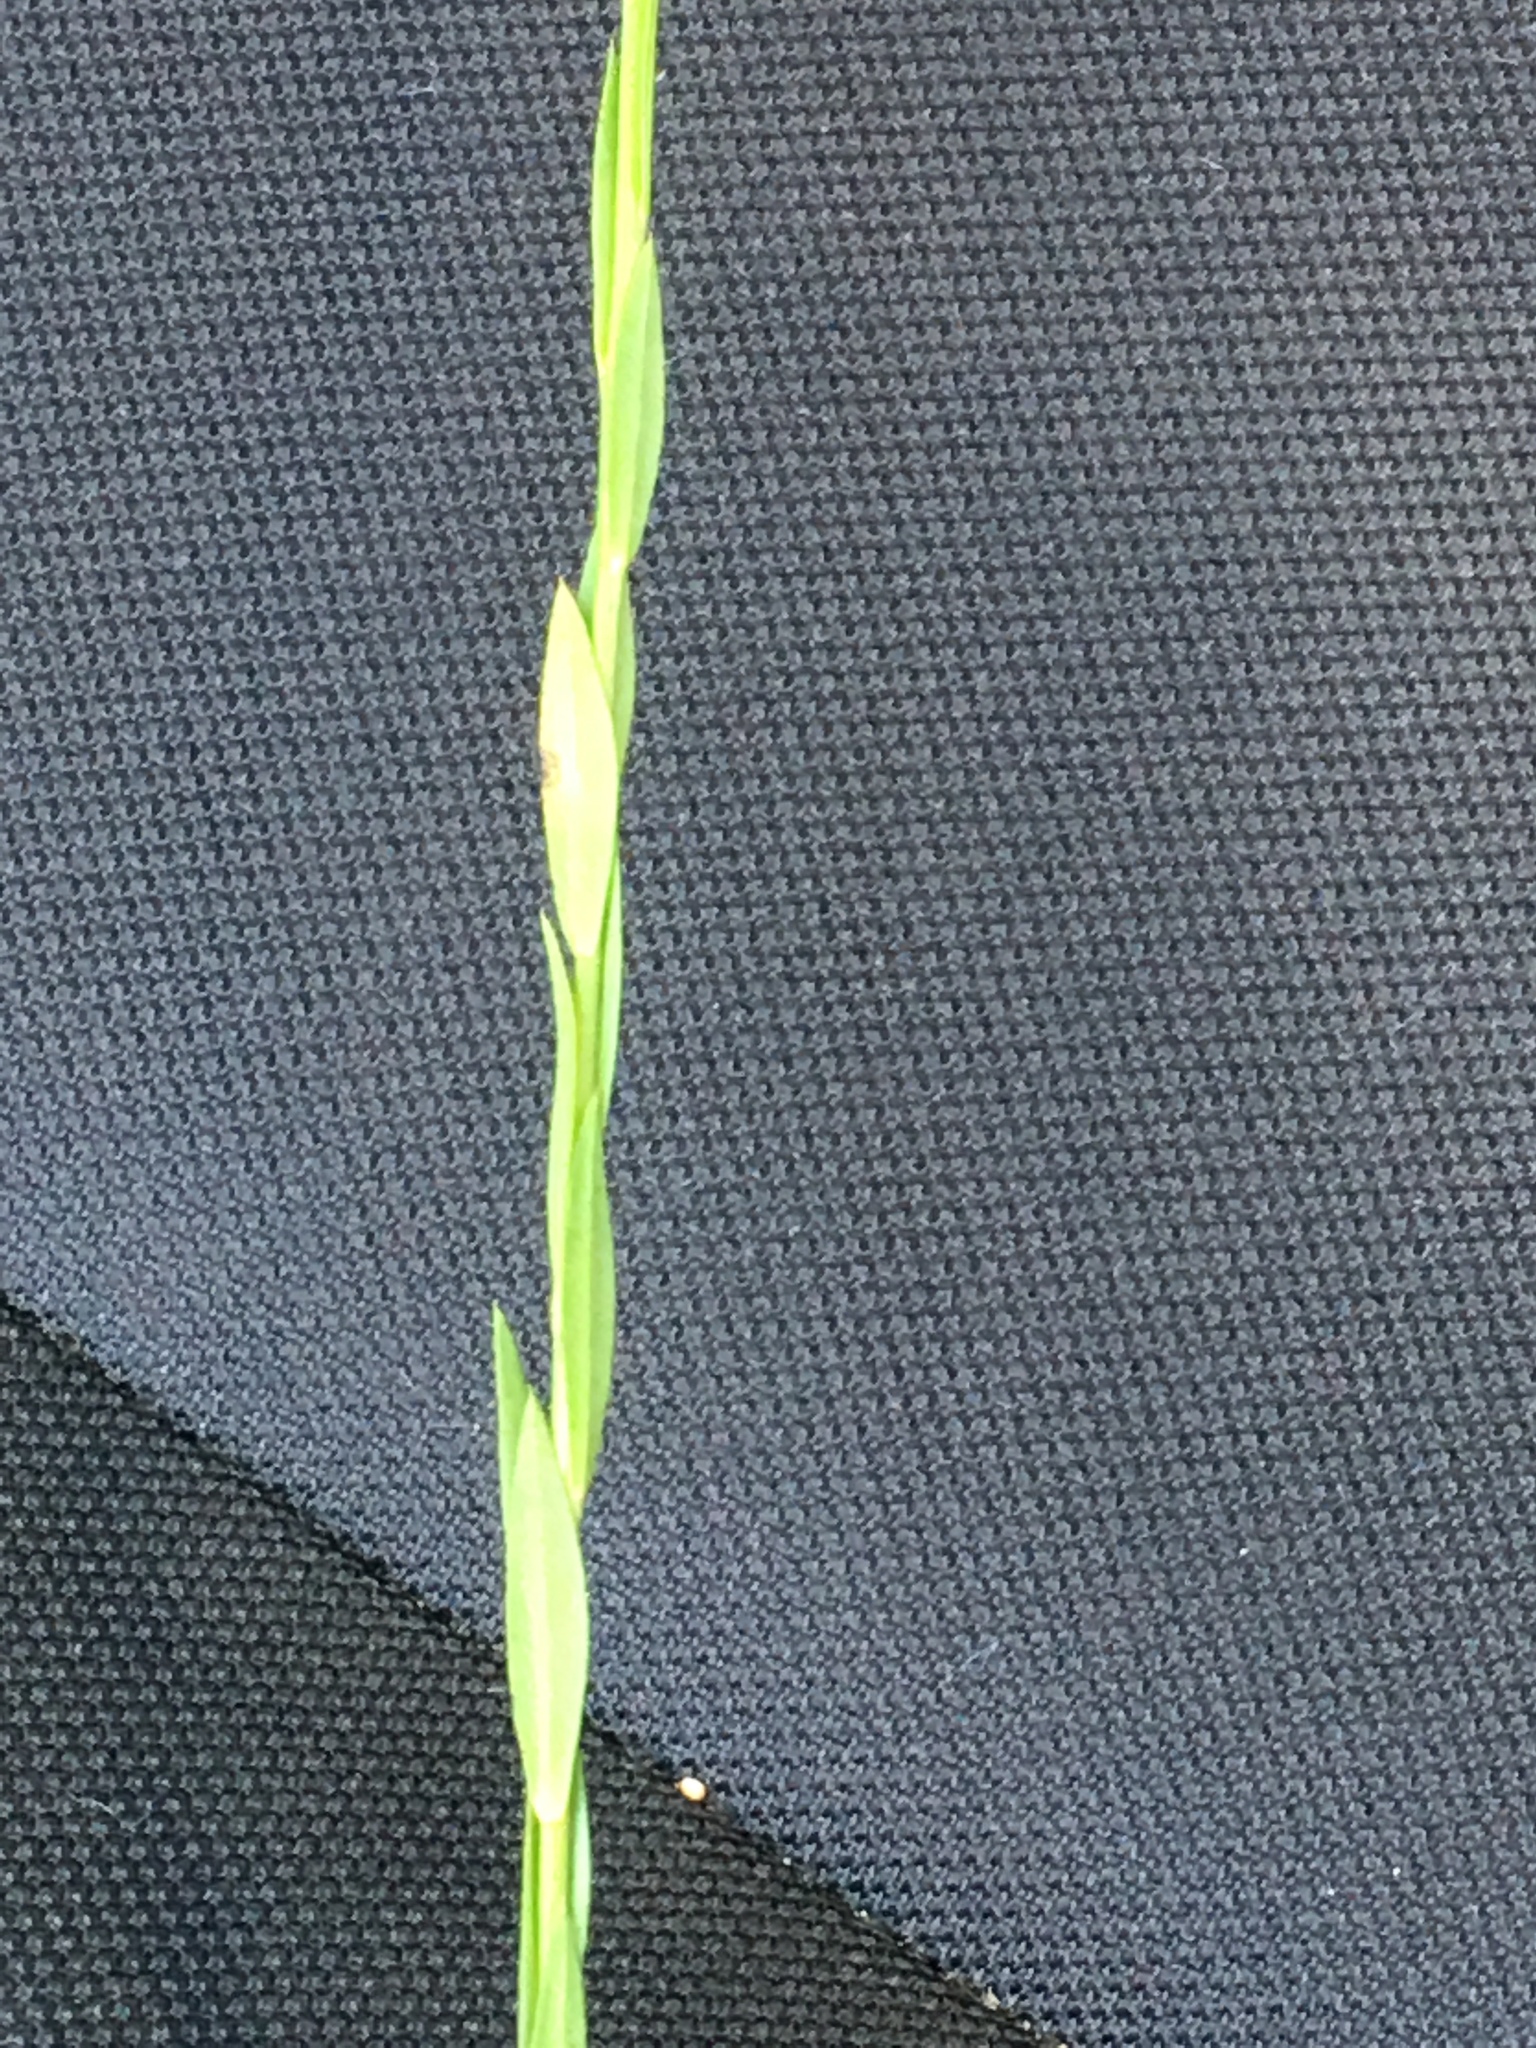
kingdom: Plantae
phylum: Tracheophyta
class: Magnoliopsida
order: Asterales
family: Campanulaceae
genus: Wahlenbergia
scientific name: Wahlenbergia marginata
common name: Southern rockbell
